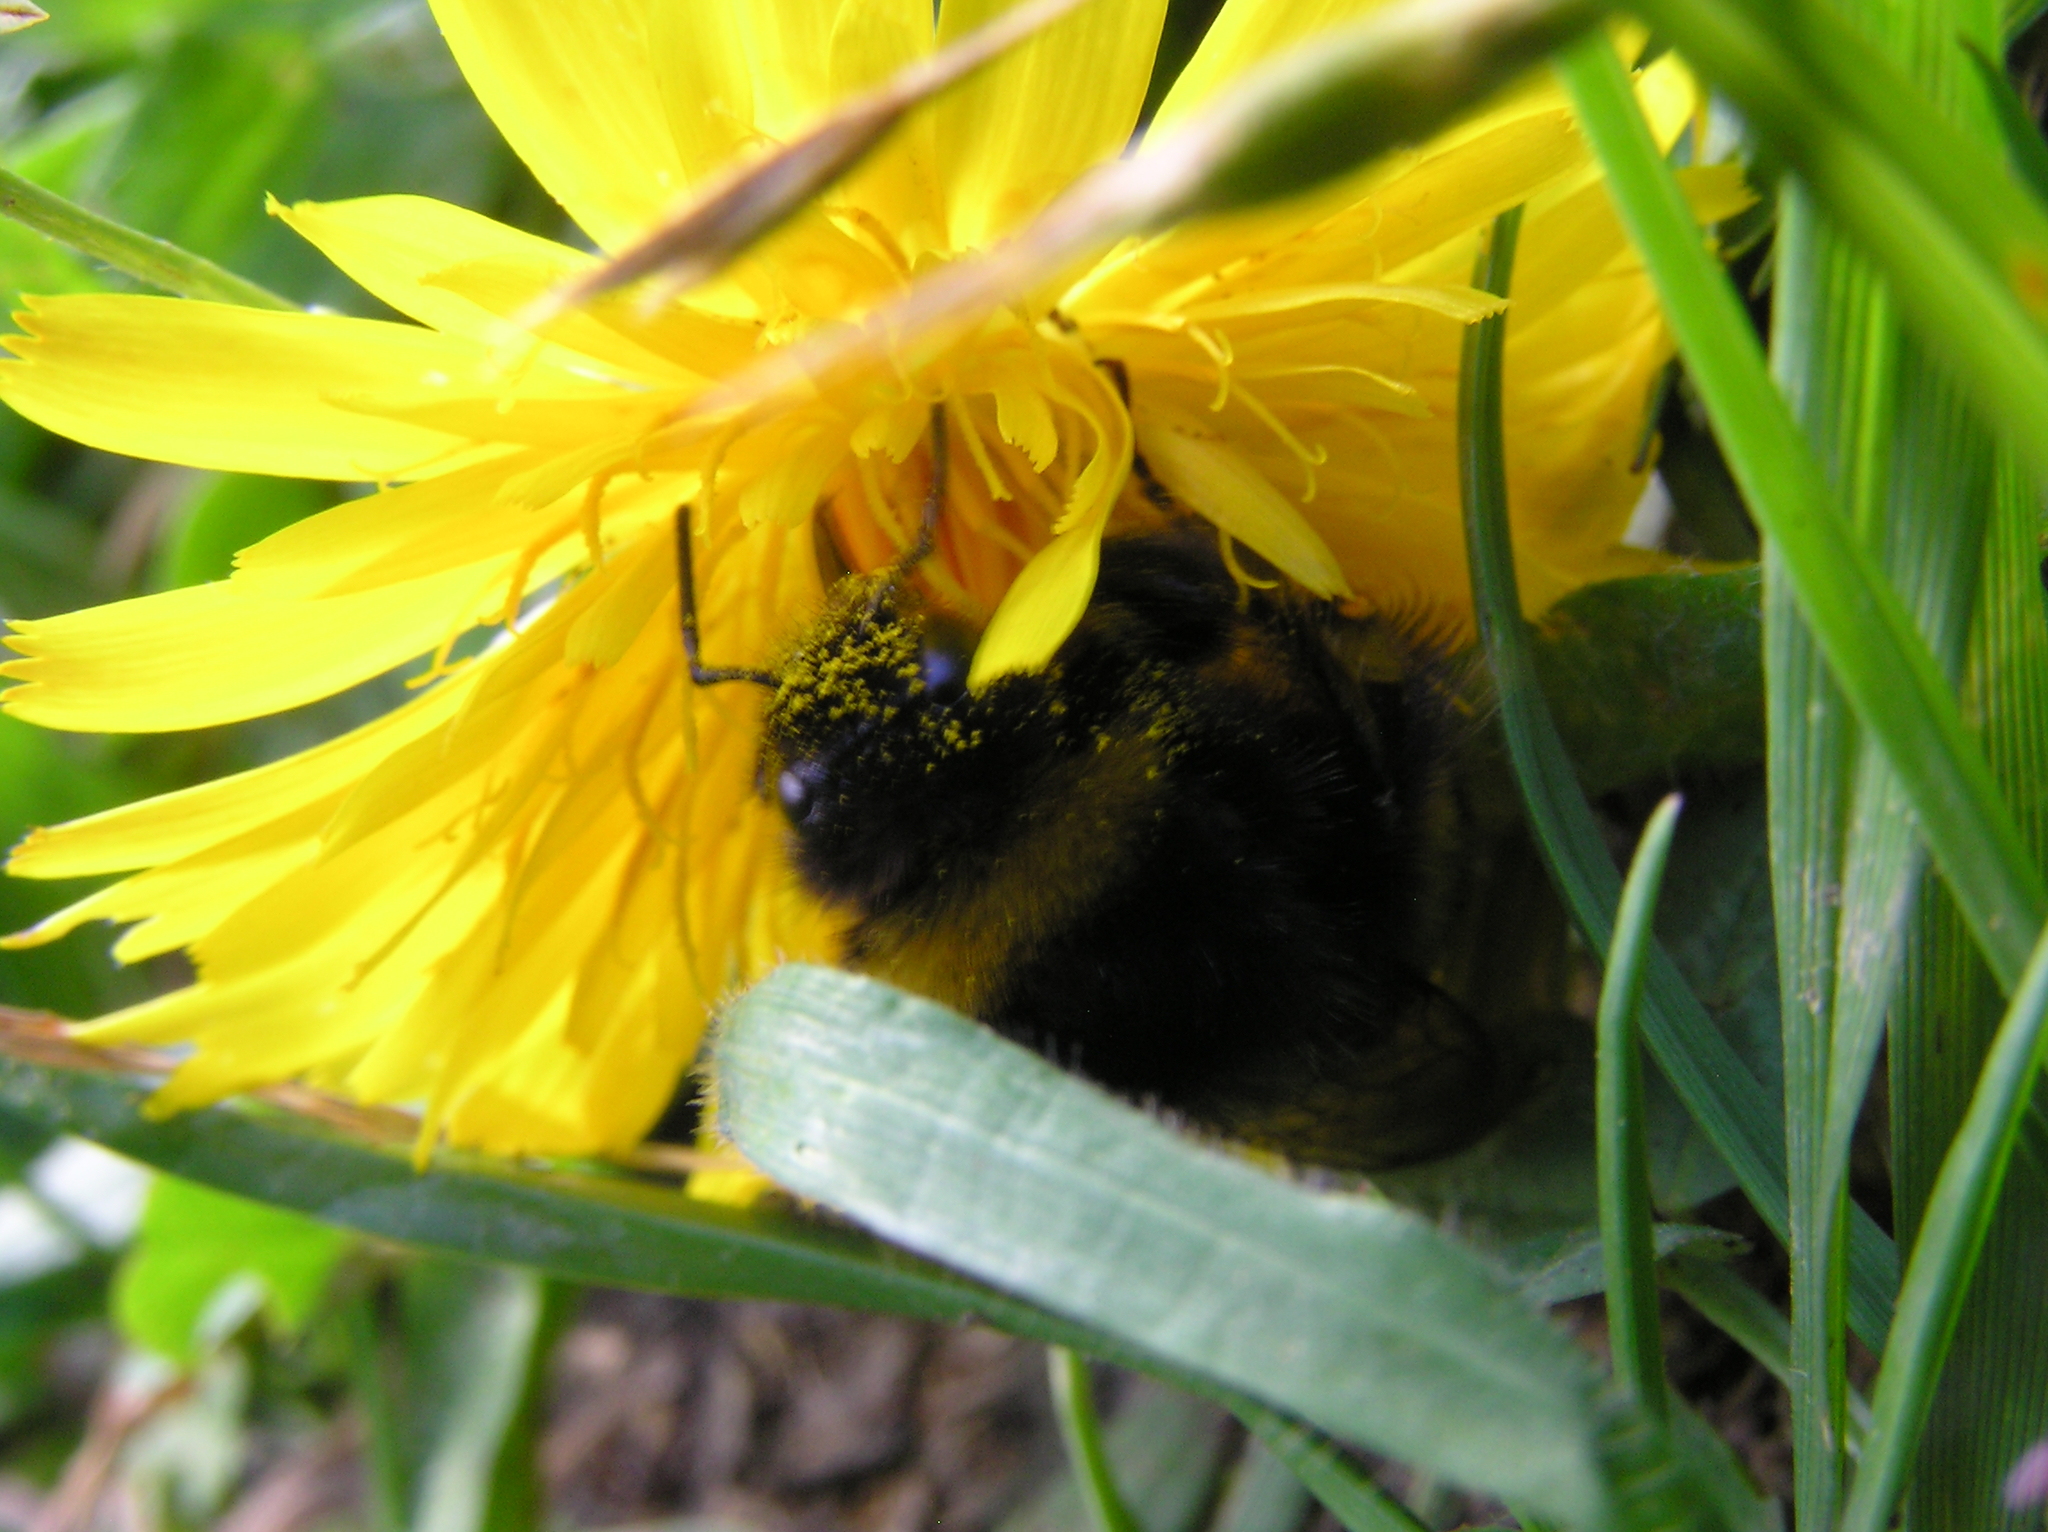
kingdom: Animalia
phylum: Arthropoda
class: Insecta
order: Hymenoptera
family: Apidae
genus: Bombus
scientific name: Bombus terrestris
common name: Buff-tailed bumblebee
